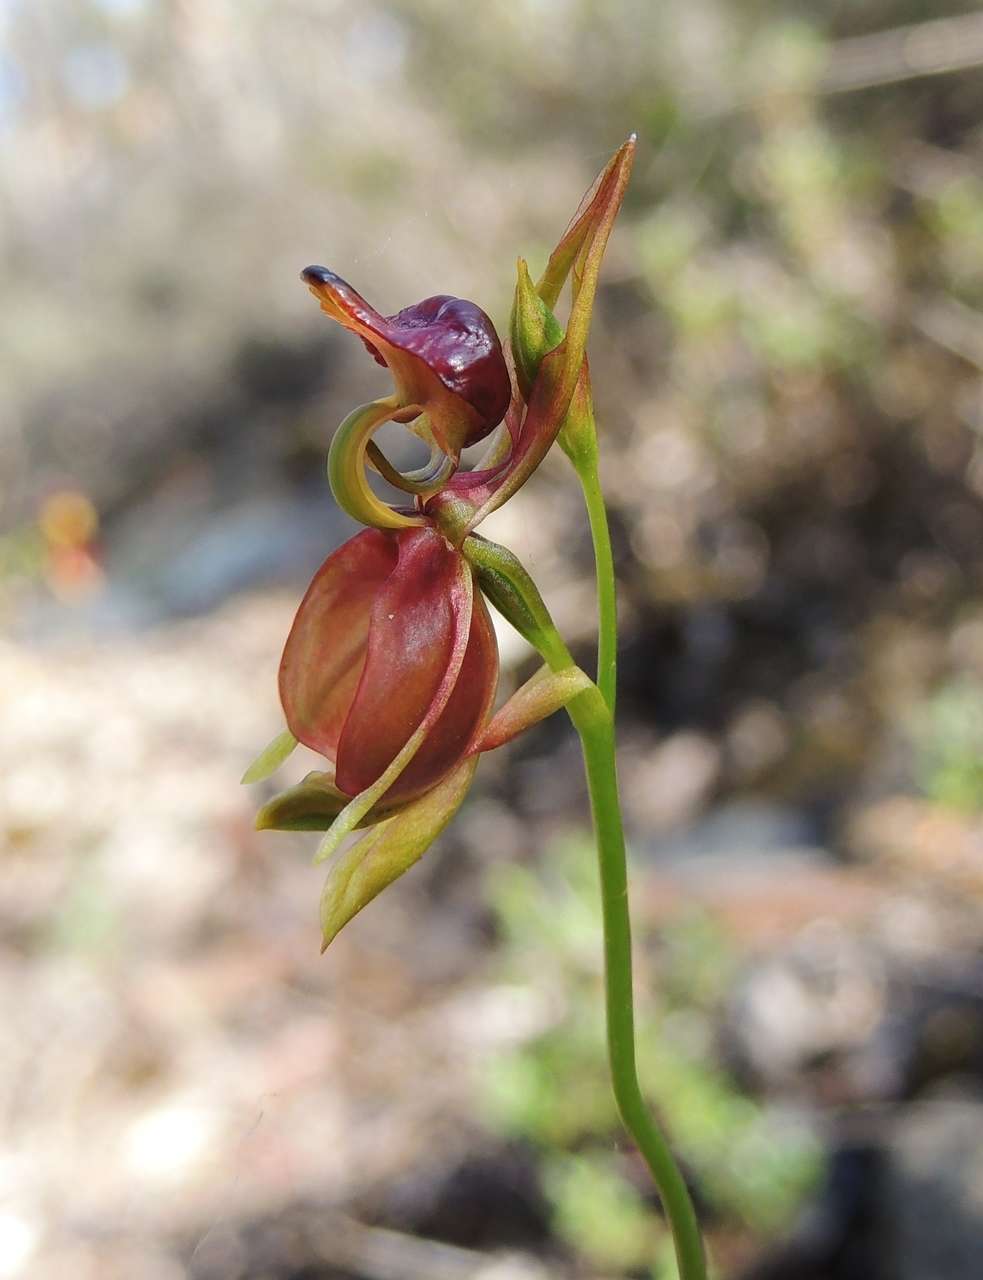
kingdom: Plantae
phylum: Tracheophyta
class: Liliopsida
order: Asparagales
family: Orchidaceae
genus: Caleana
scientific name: Caleana major
